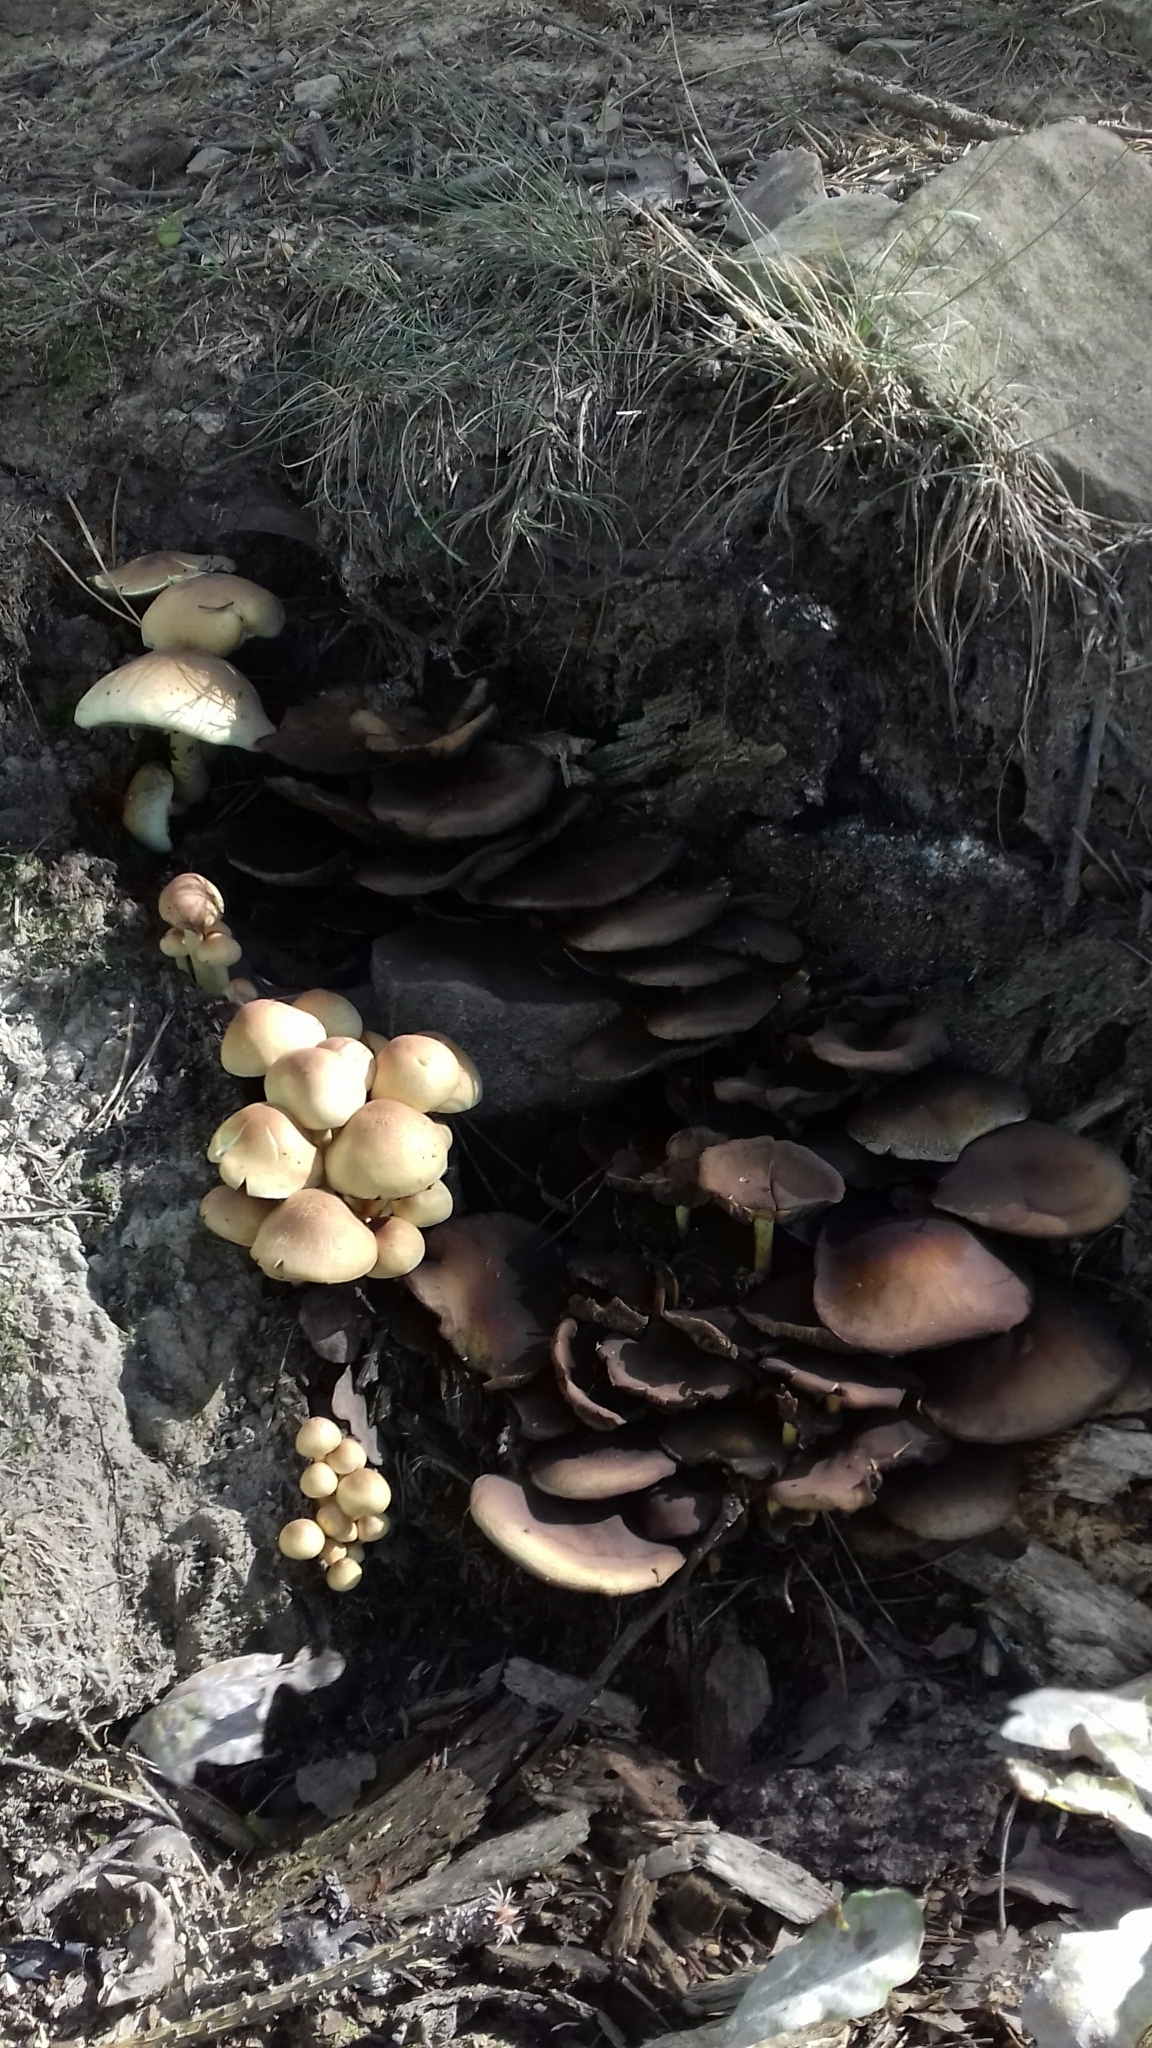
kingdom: Fungi
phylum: Basidiomycota
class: Agaricomycetes
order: Agaricales
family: Strophariaceae
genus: Hypholoma
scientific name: Hypholoma fasciculare
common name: Sulphur tuft
